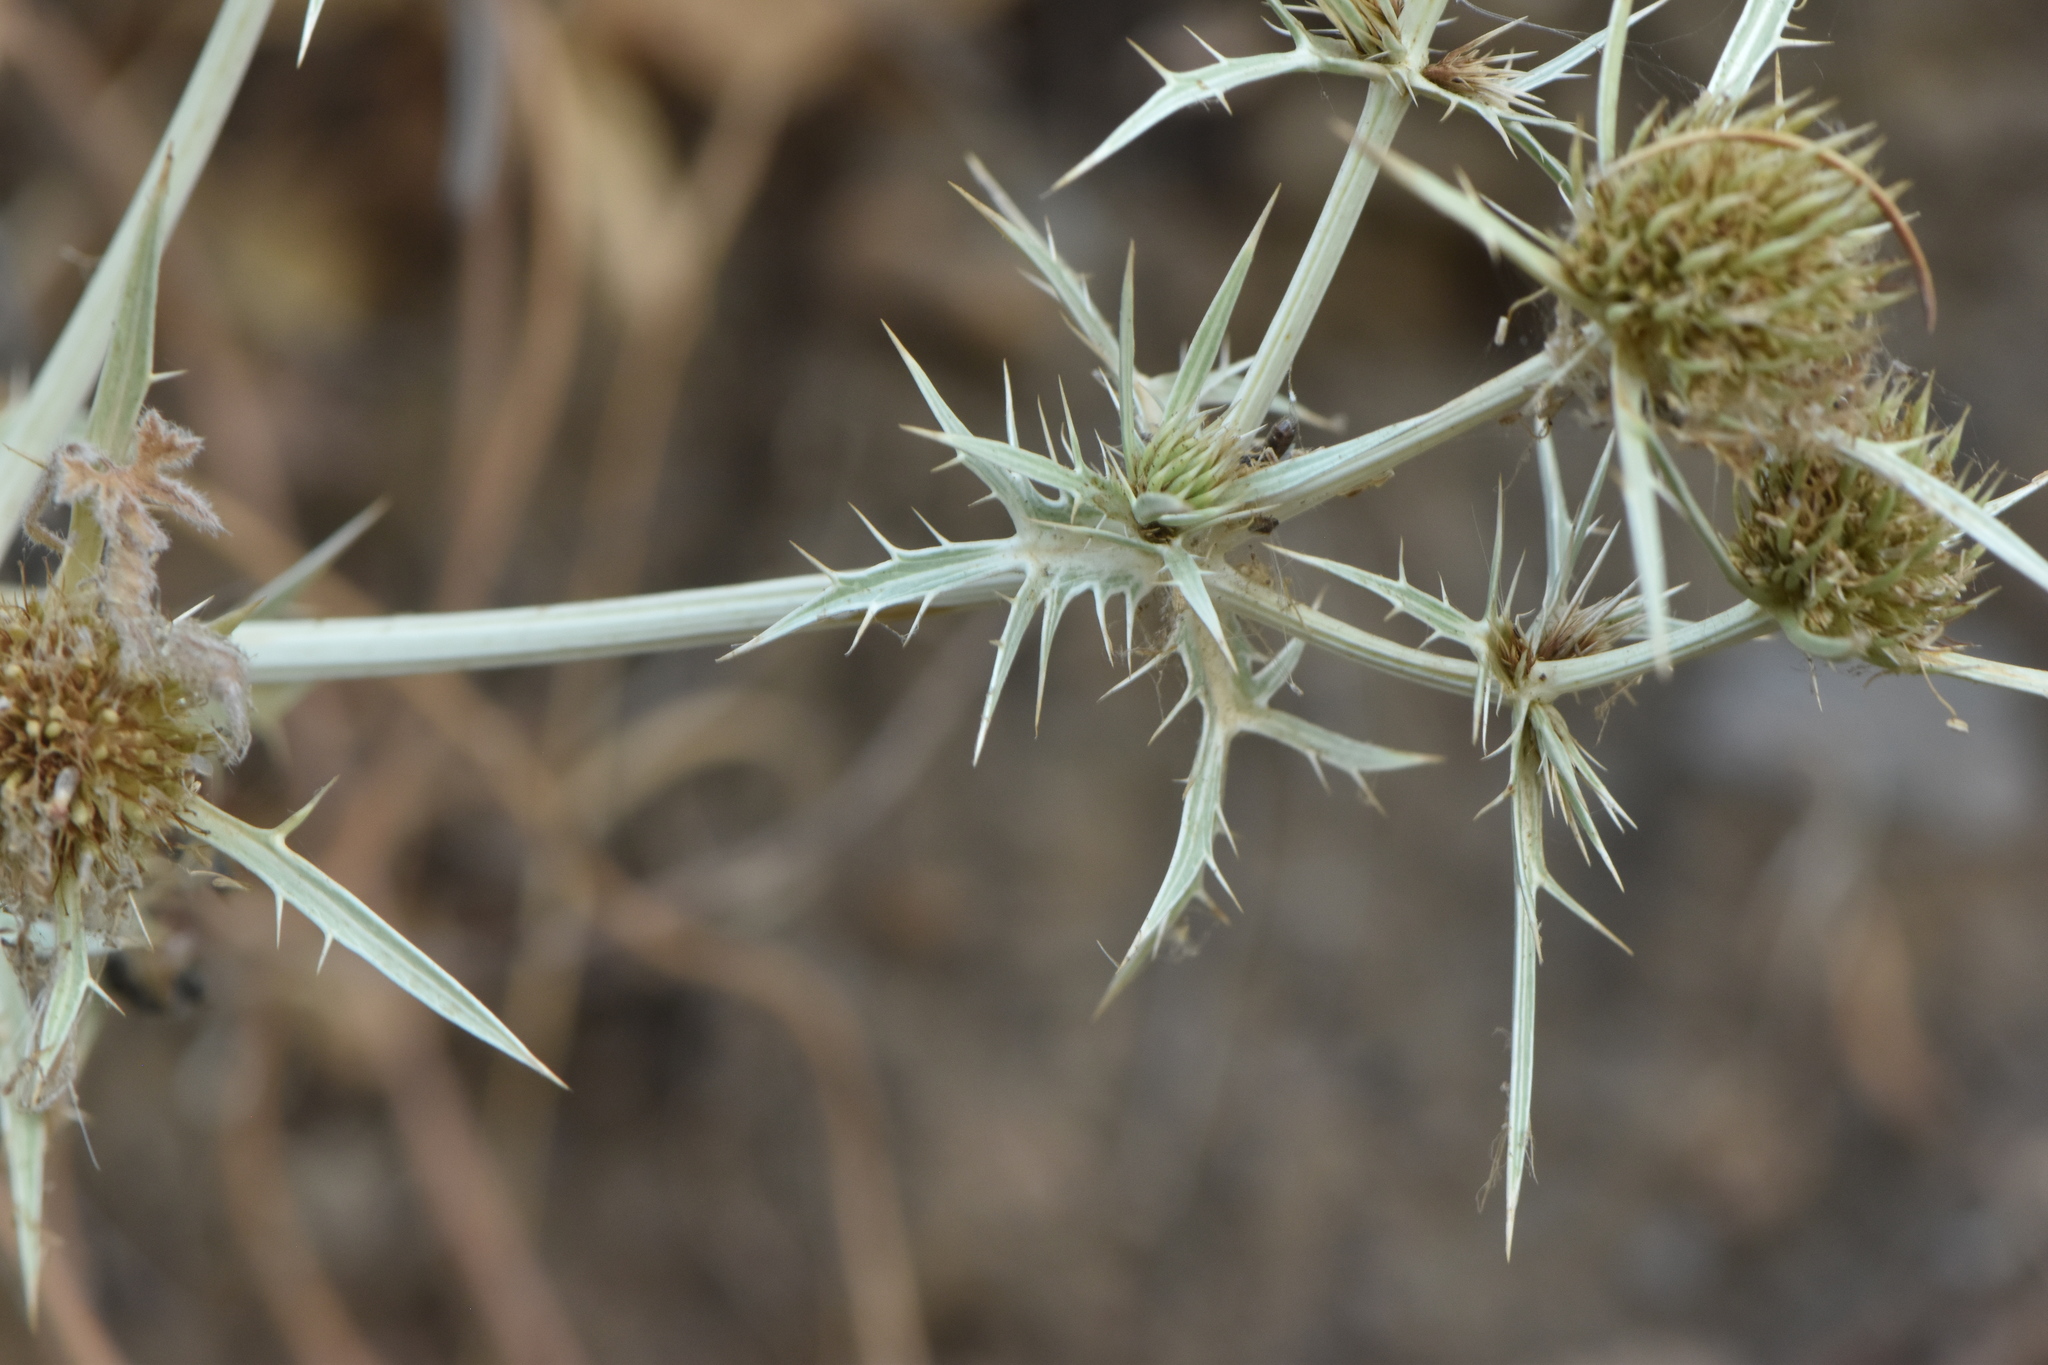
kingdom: Plantae
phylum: Tracheophyta
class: Magnoliopsida
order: Apiales
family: Apiaceae
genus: Eryngium
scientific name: Eryngium campestre
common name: Field eryngo
